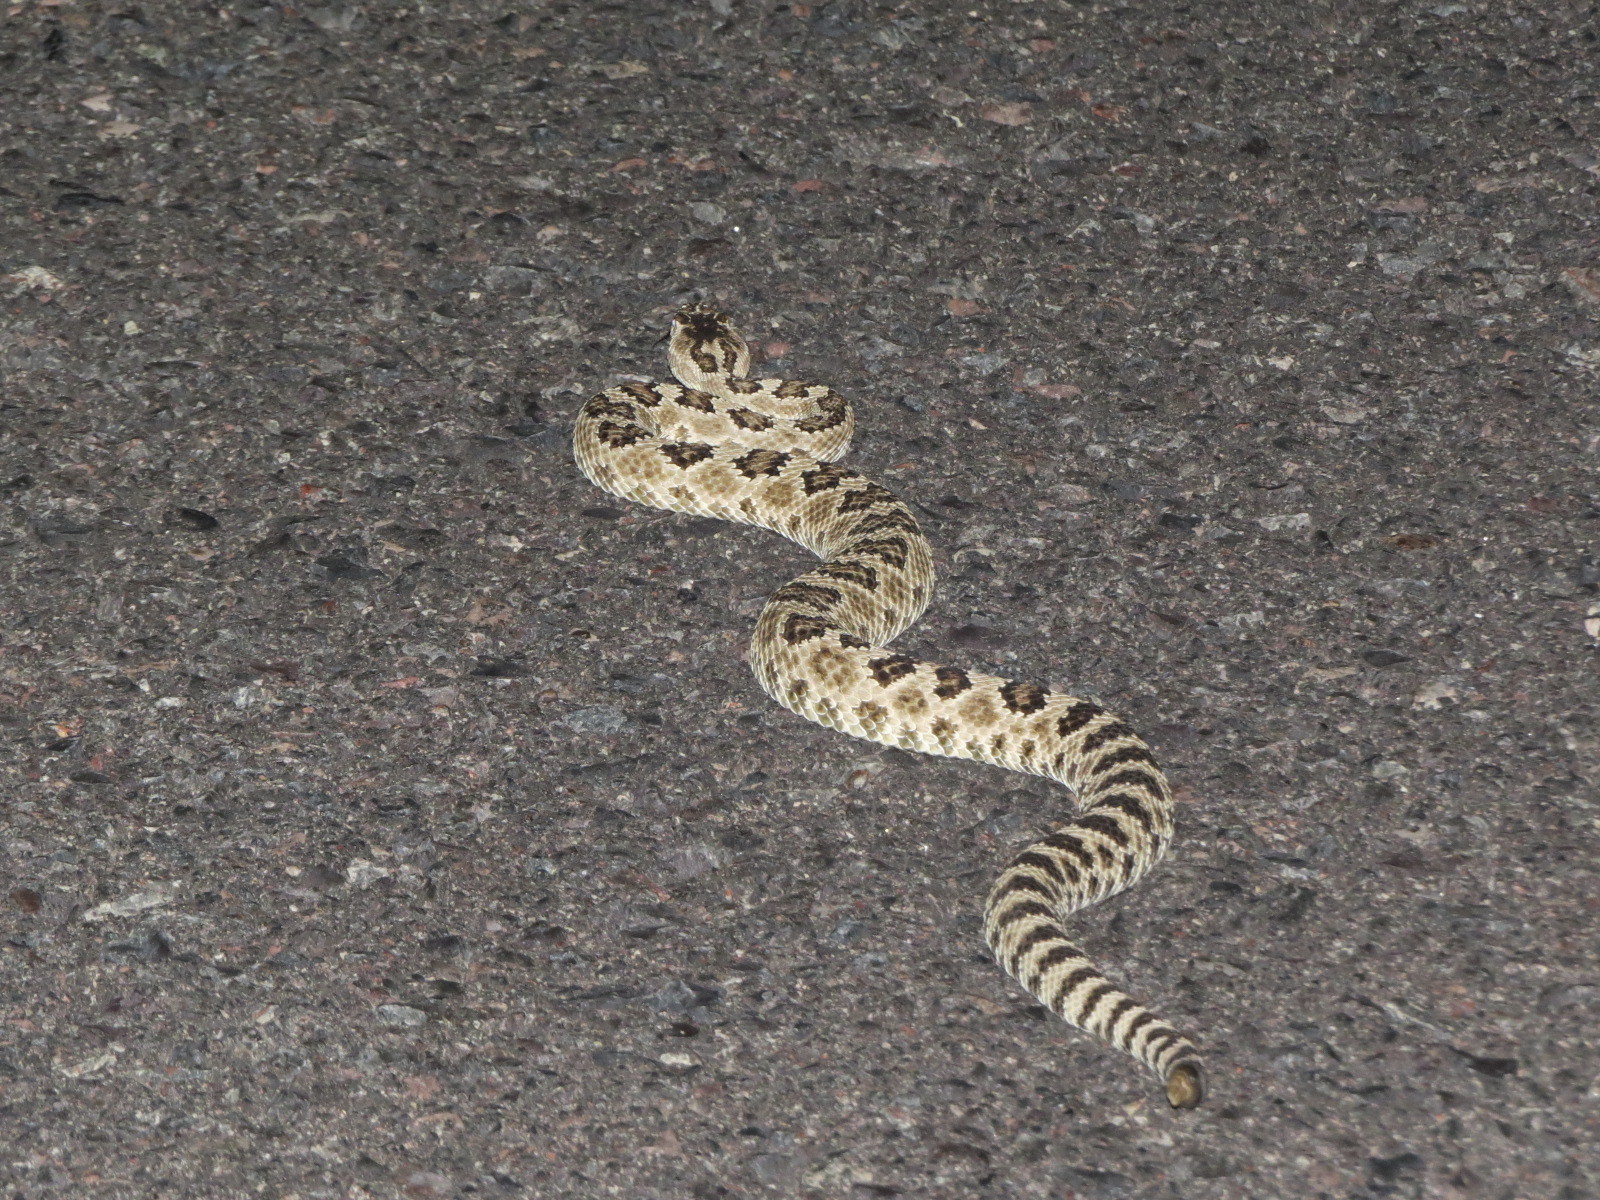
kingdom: Animalia
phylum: Chordata
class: Squamata
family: Viperidae
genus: Crotalus
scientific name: Crotalus oreganus
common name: Abyssus
